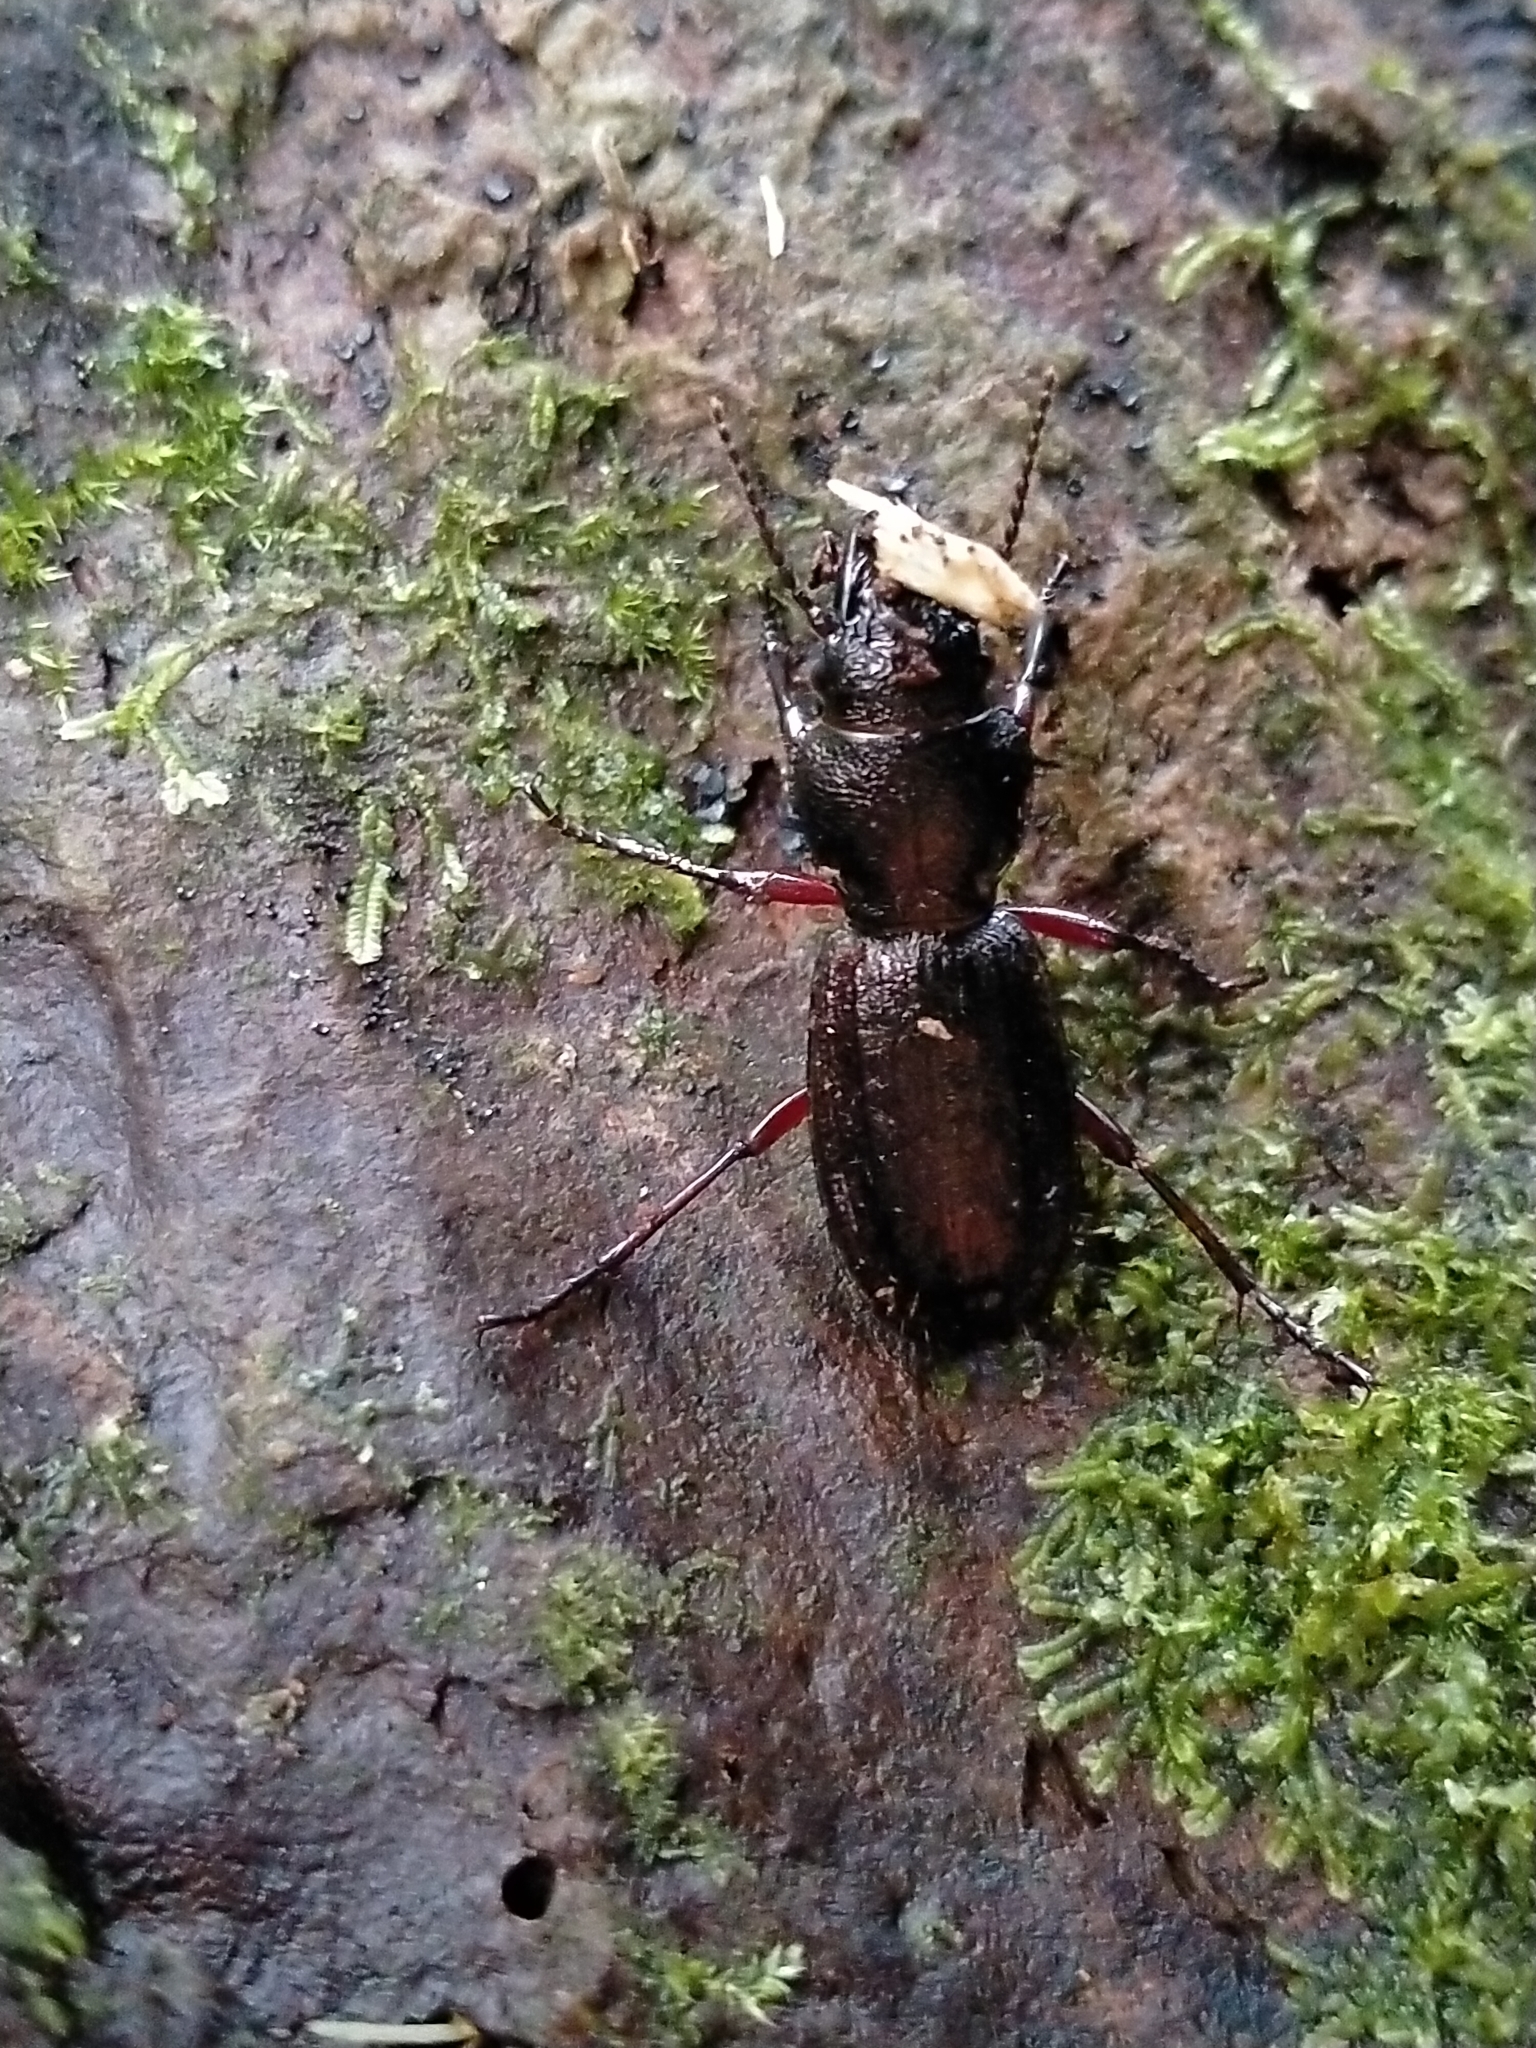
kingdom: Animalia
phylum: Arthropoda
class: Insecta
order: Coleoptera
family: Carabidae
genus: Mecodema
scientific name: Mecodema sculpturatum
